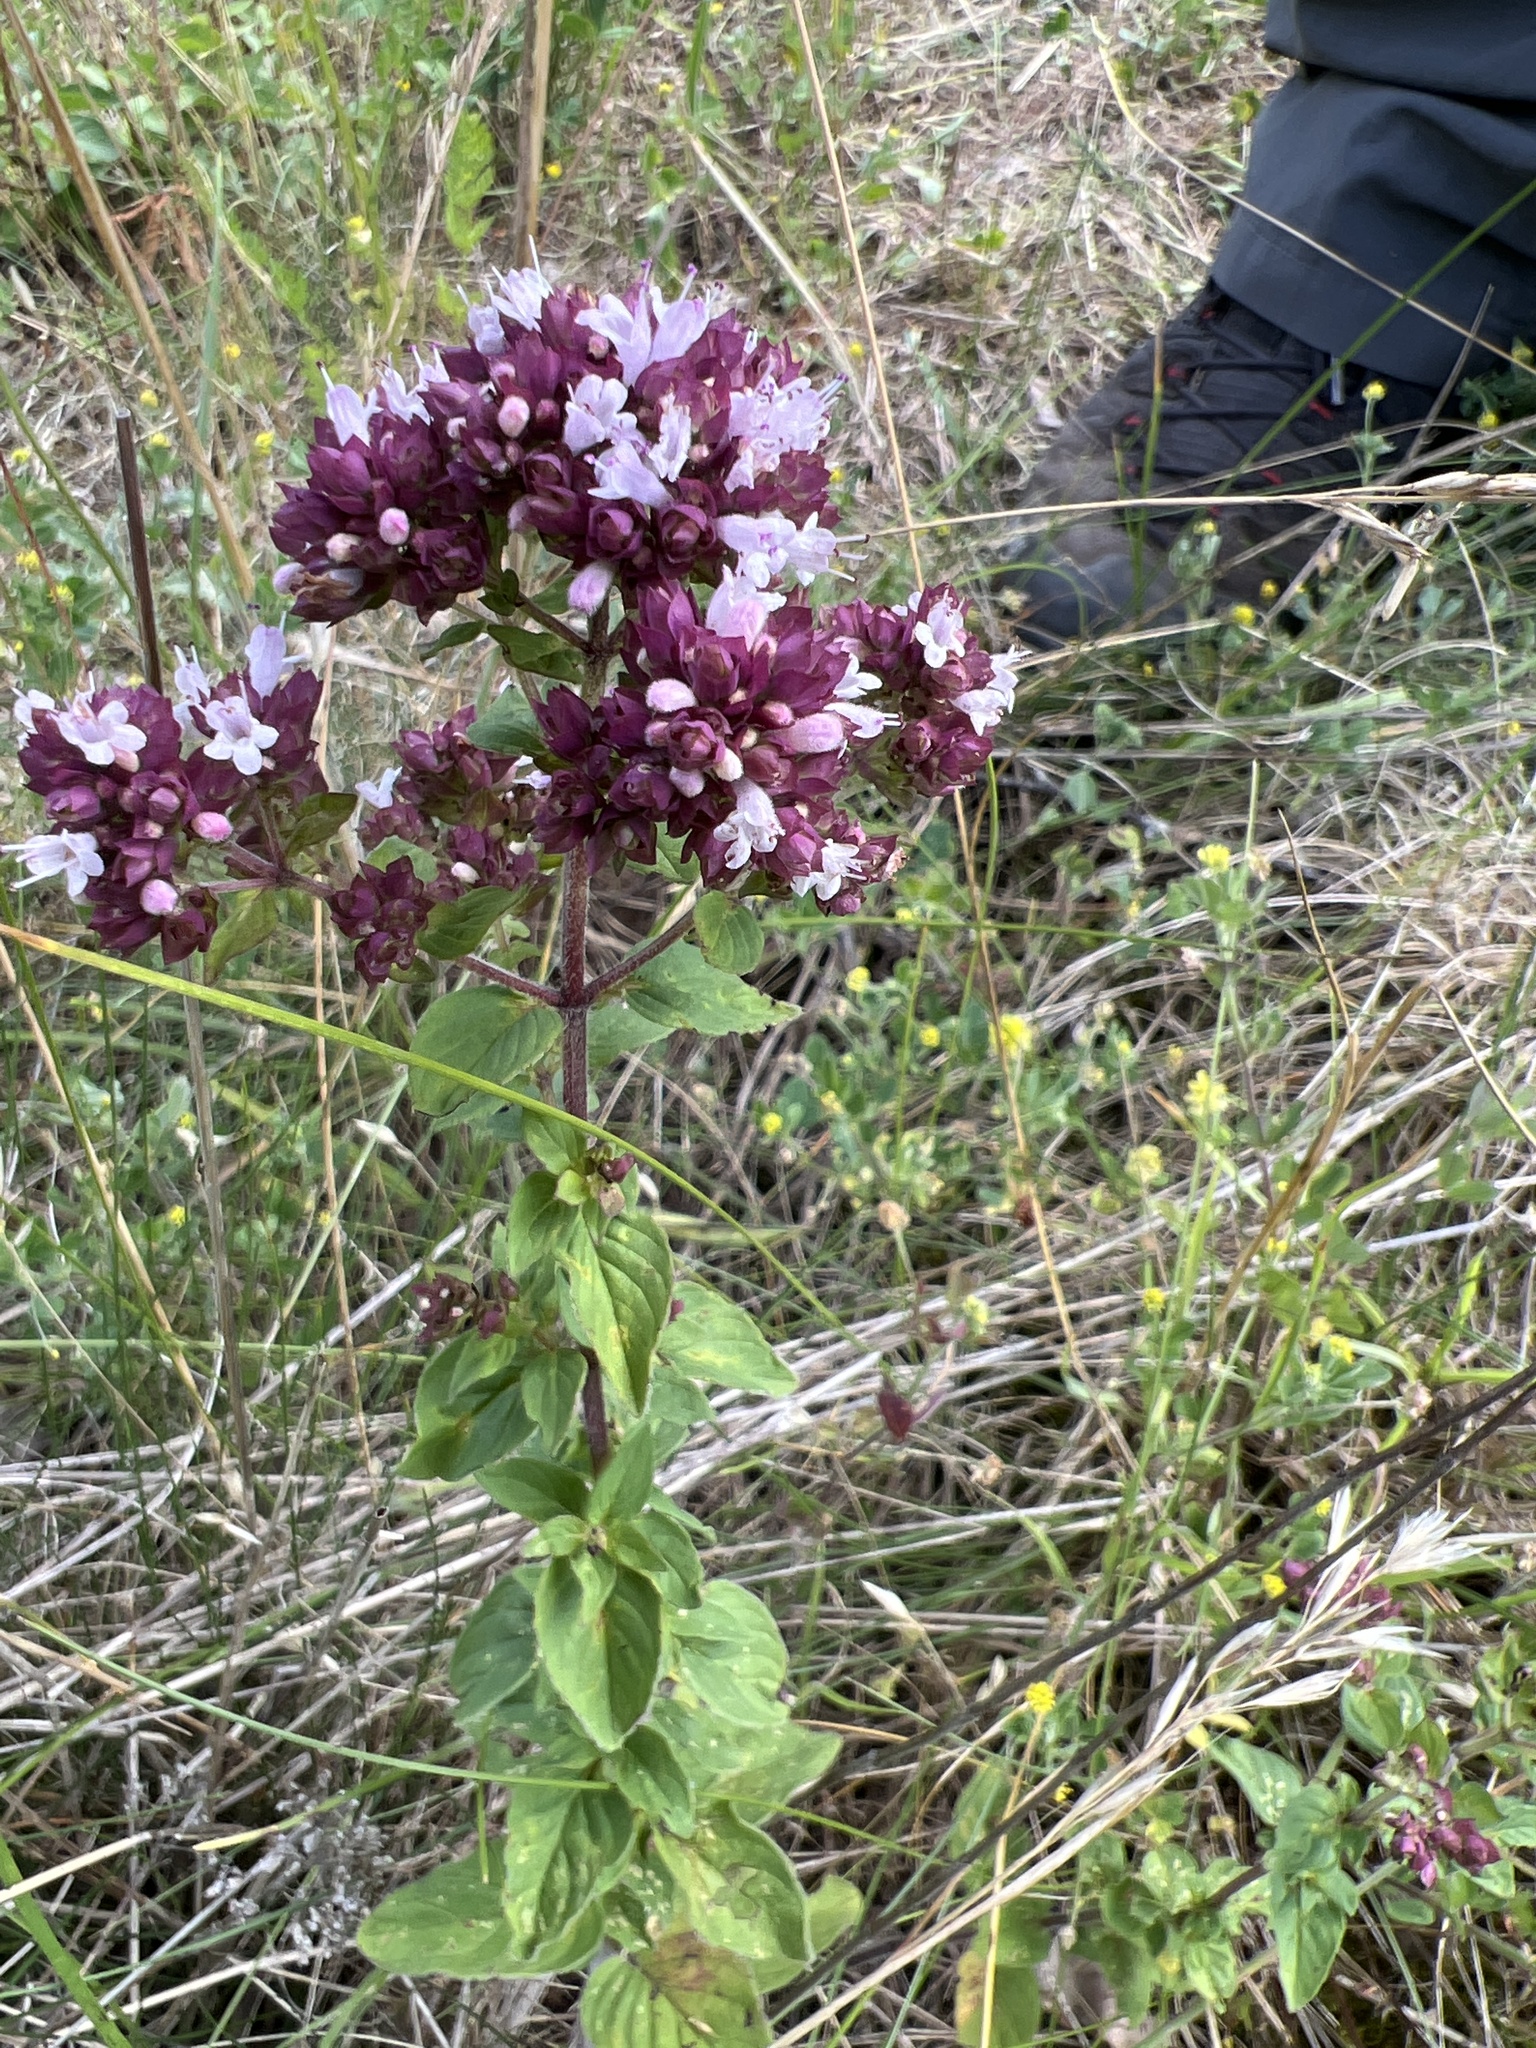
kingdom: Plantae
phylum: Tracheophyta
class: Magnoliopsida
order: Lamiales
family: Lamiaceae
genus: Origanum
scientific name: Origanum vulgare
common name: Wild marjoram
